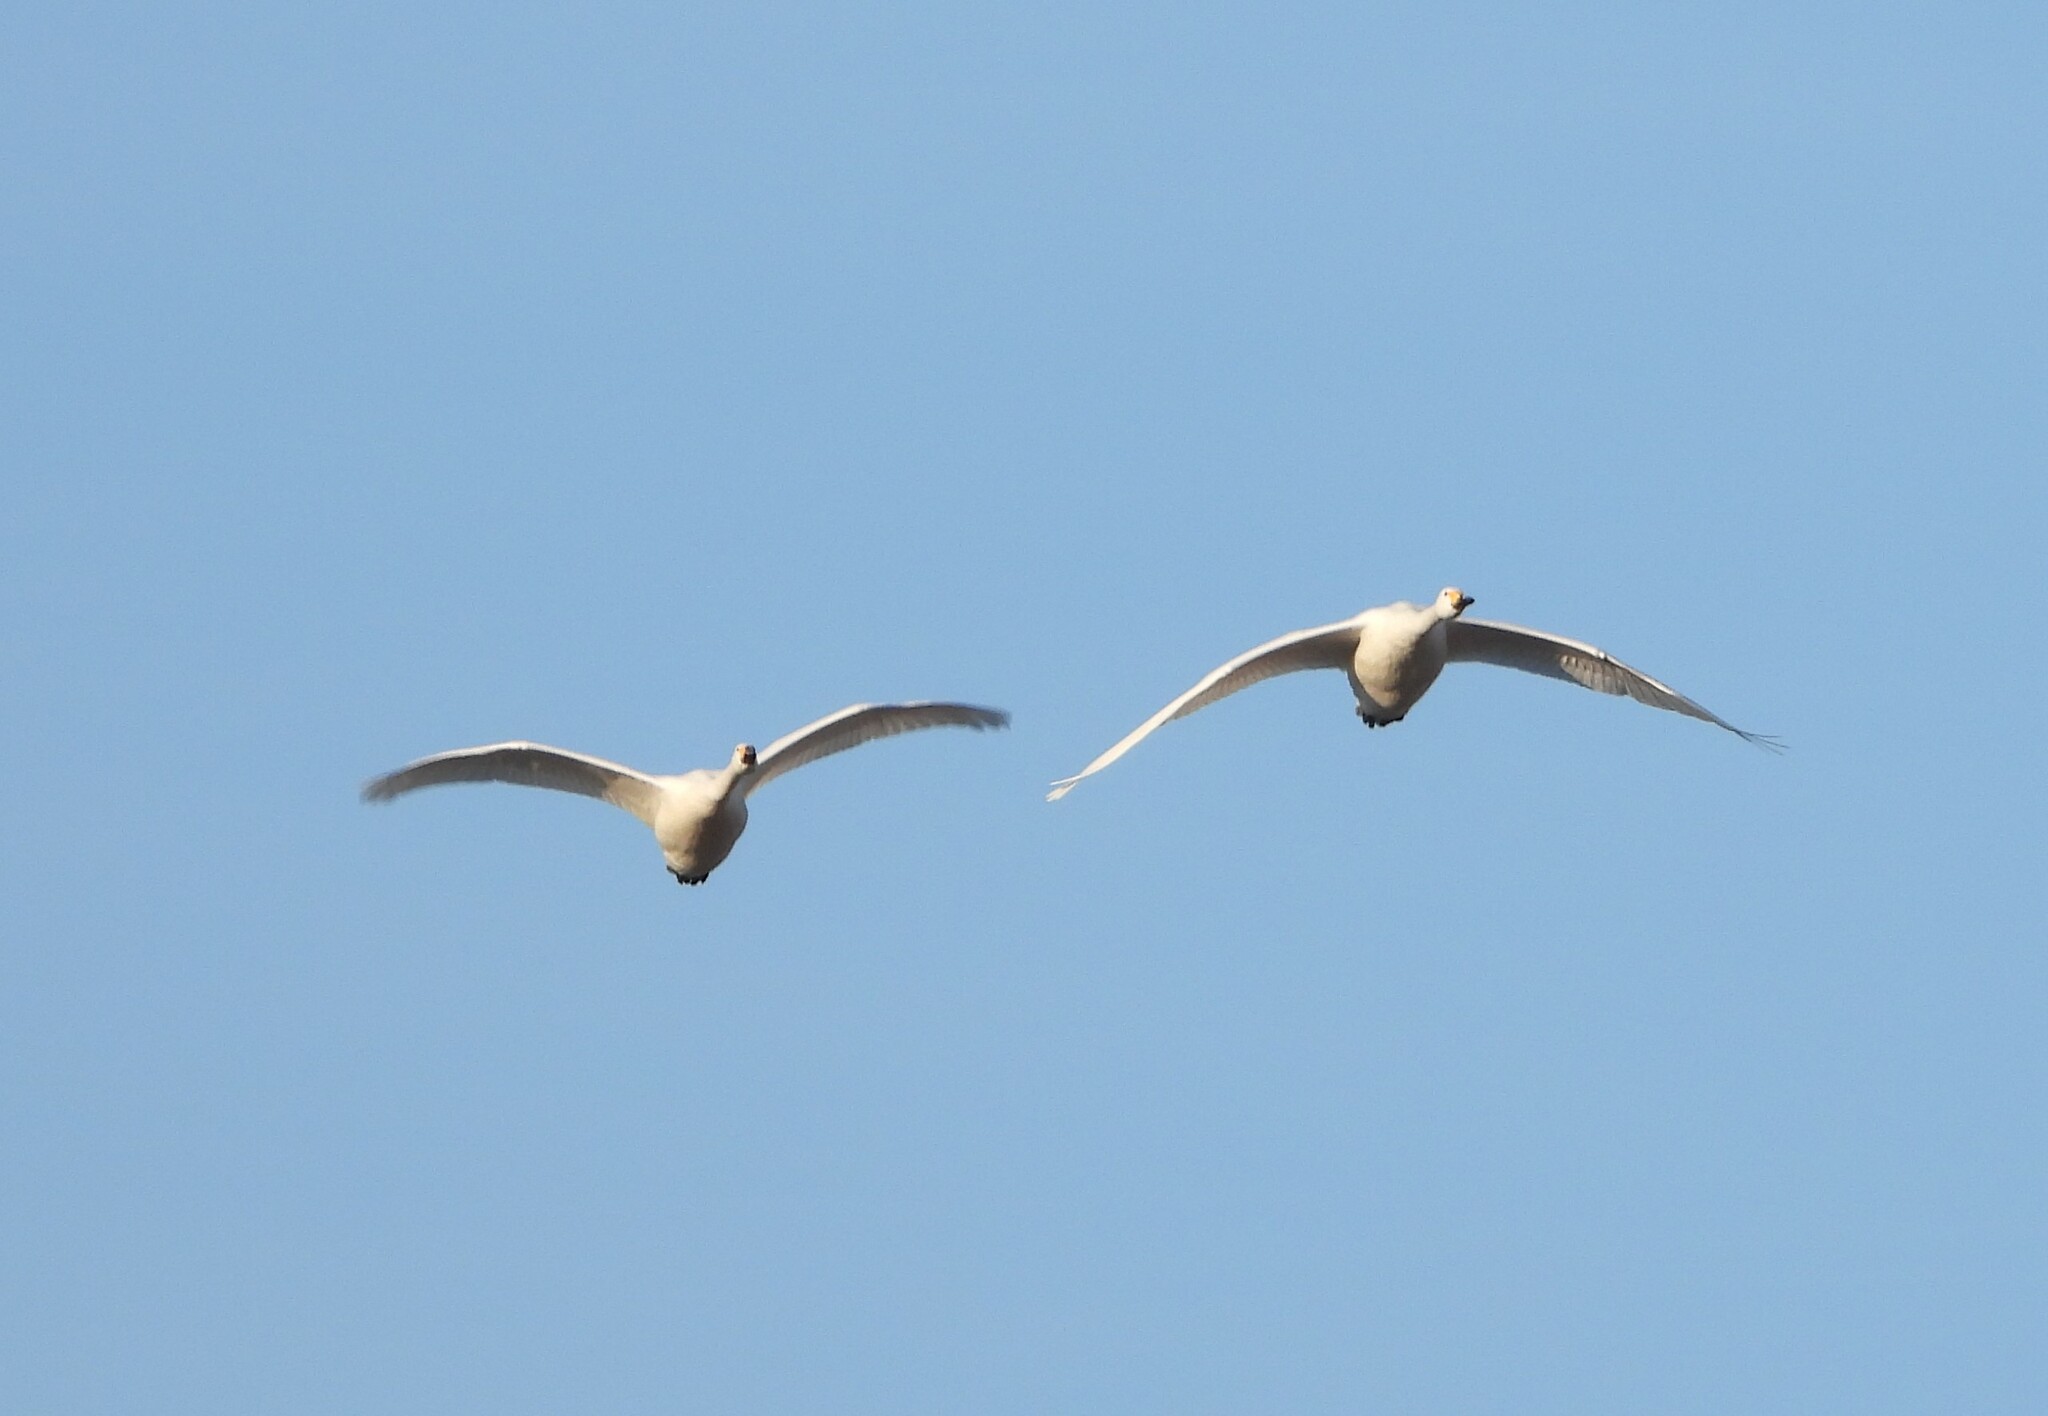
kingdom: Animalia
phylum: Chordata
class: Aves
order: Anseriformes
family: Anatidae
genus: Cygnus
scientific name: Cygnus cygnus
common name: Whooper swan
